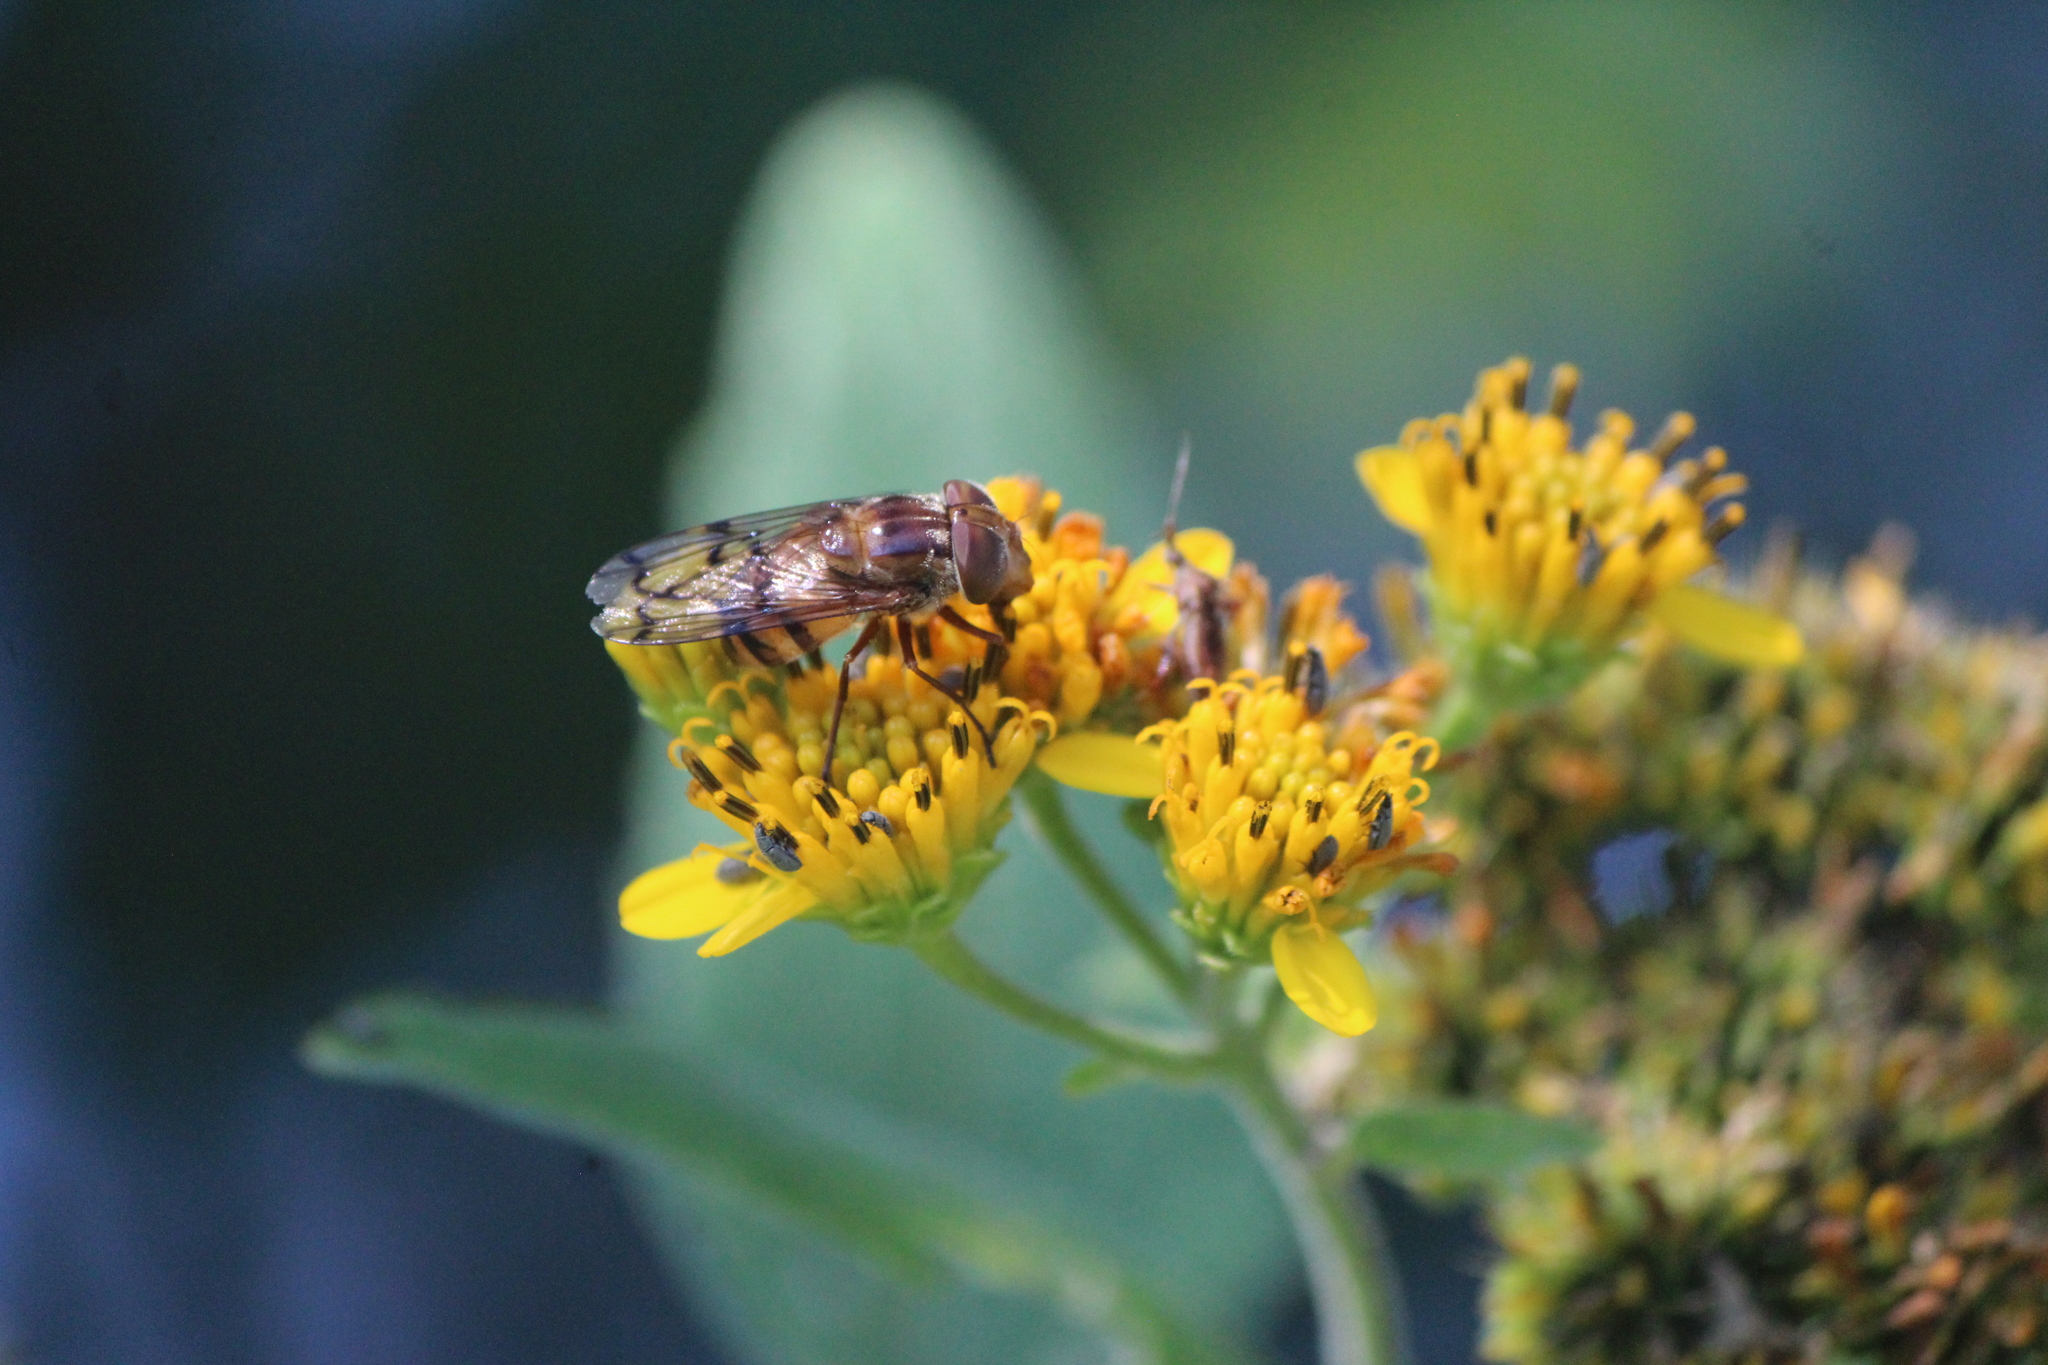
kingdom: Animalia
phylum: Arthropoda
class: Insecta
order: Diptera
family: Syrphidae
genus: Copestylum
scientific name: Copestylum opinator
